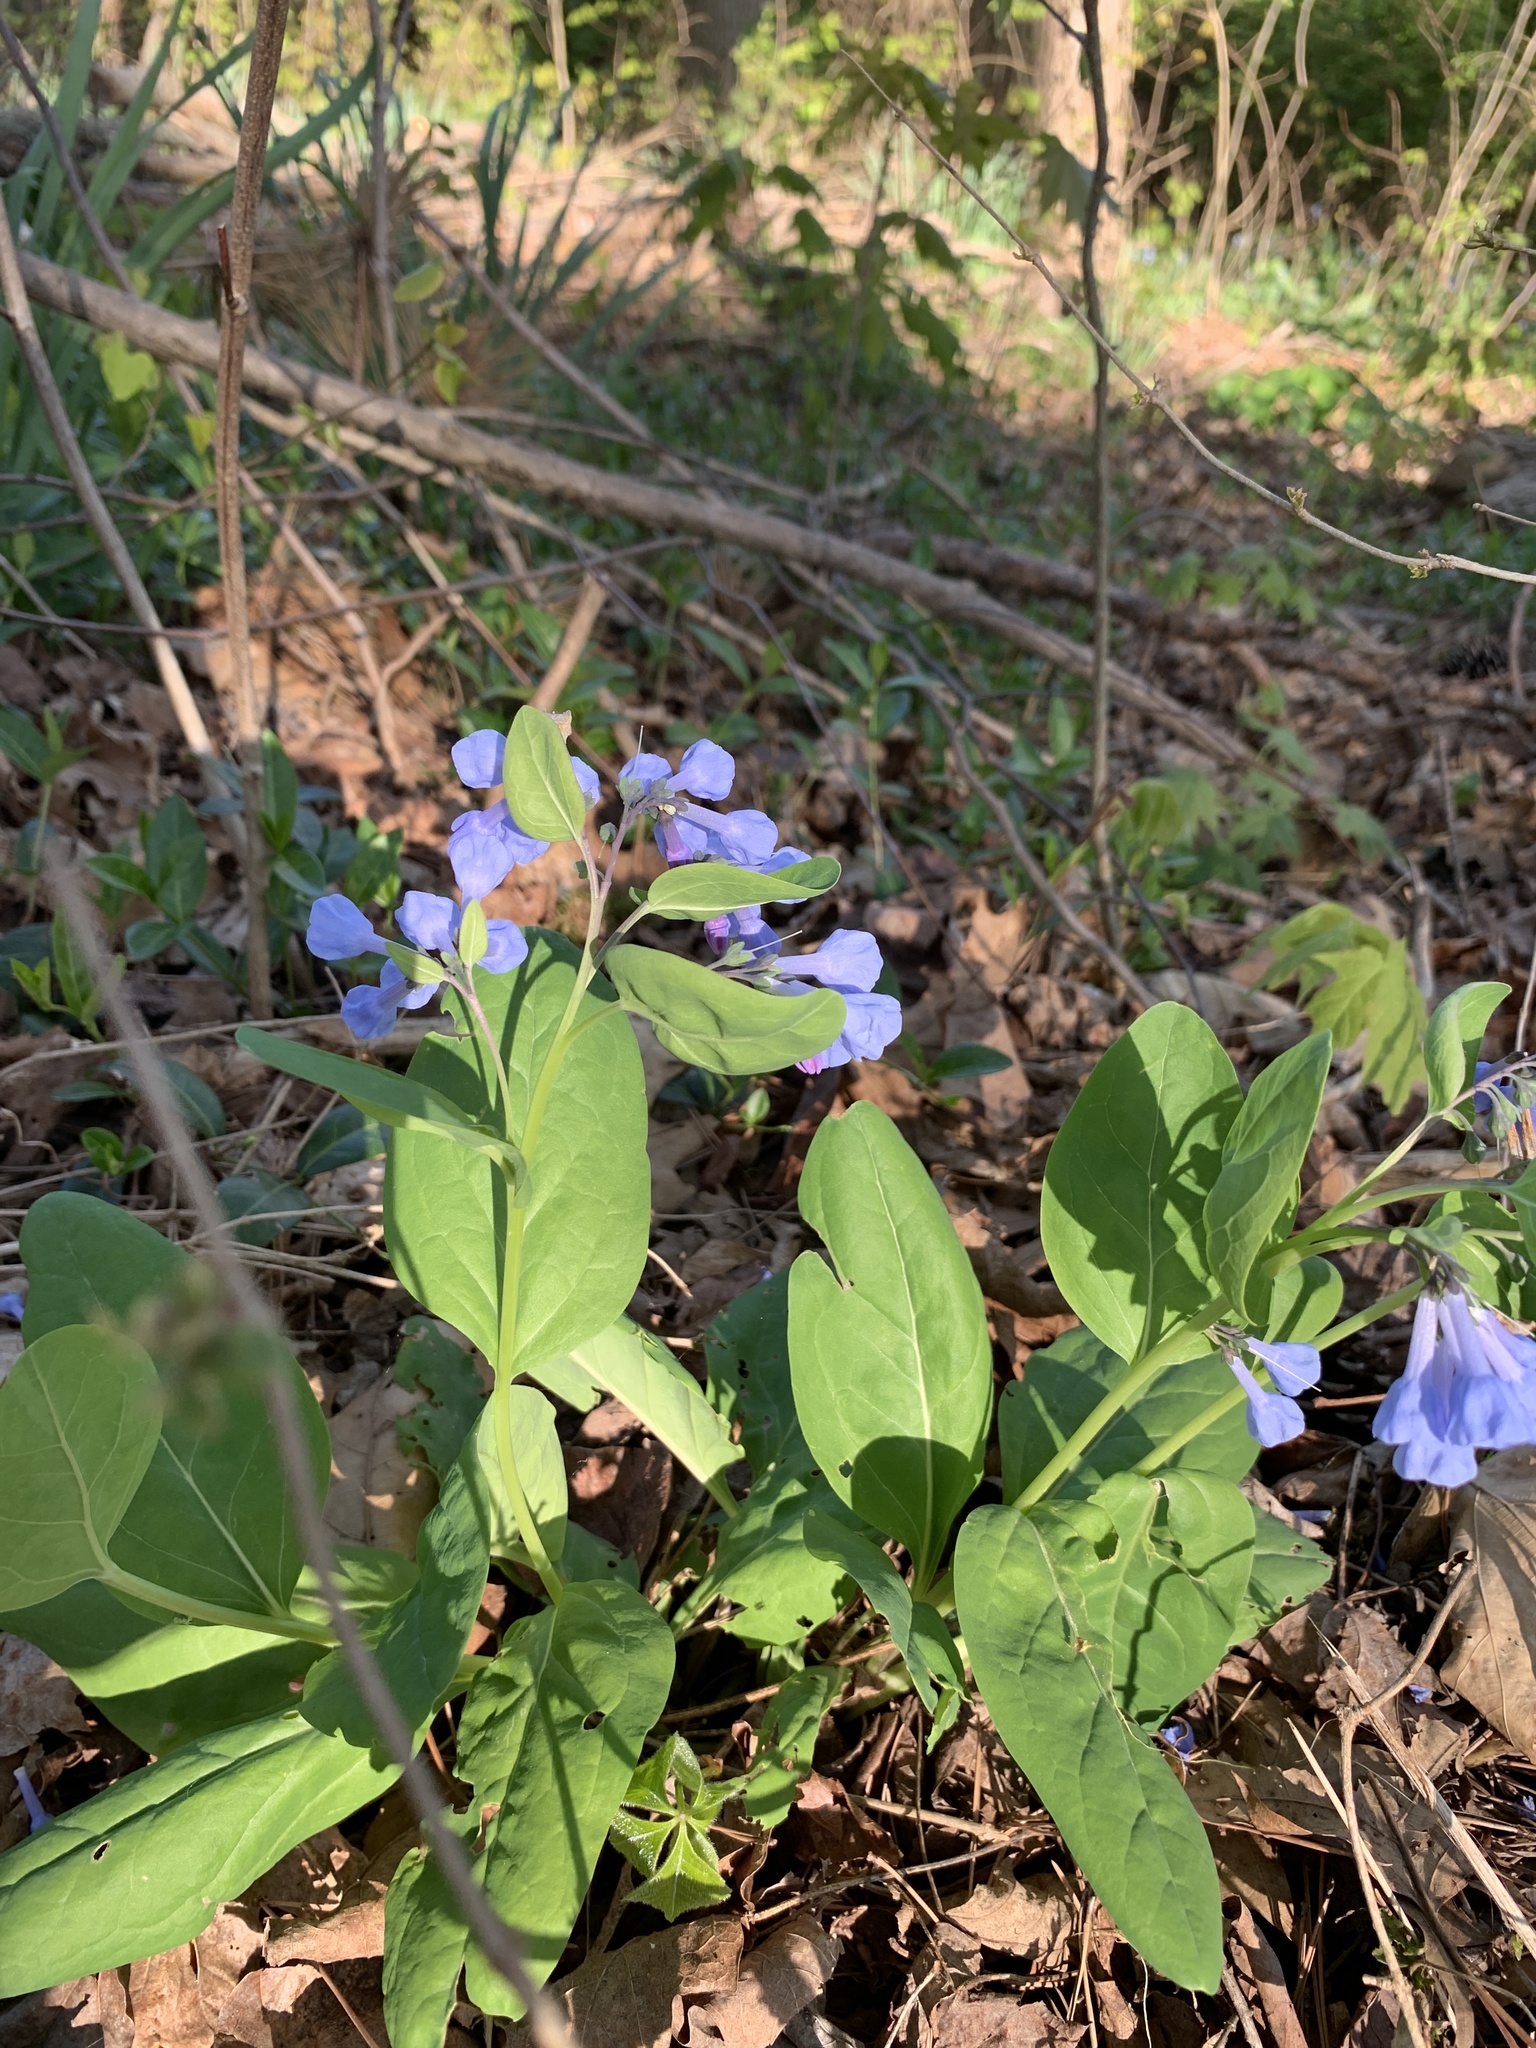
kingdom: Plantae
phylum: Tracheophyta
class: Magnoliopsida
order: Boraginales
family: Boraginaceae
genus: Mertensia
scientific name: Mertensia virginica
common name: Virginia bluebells
